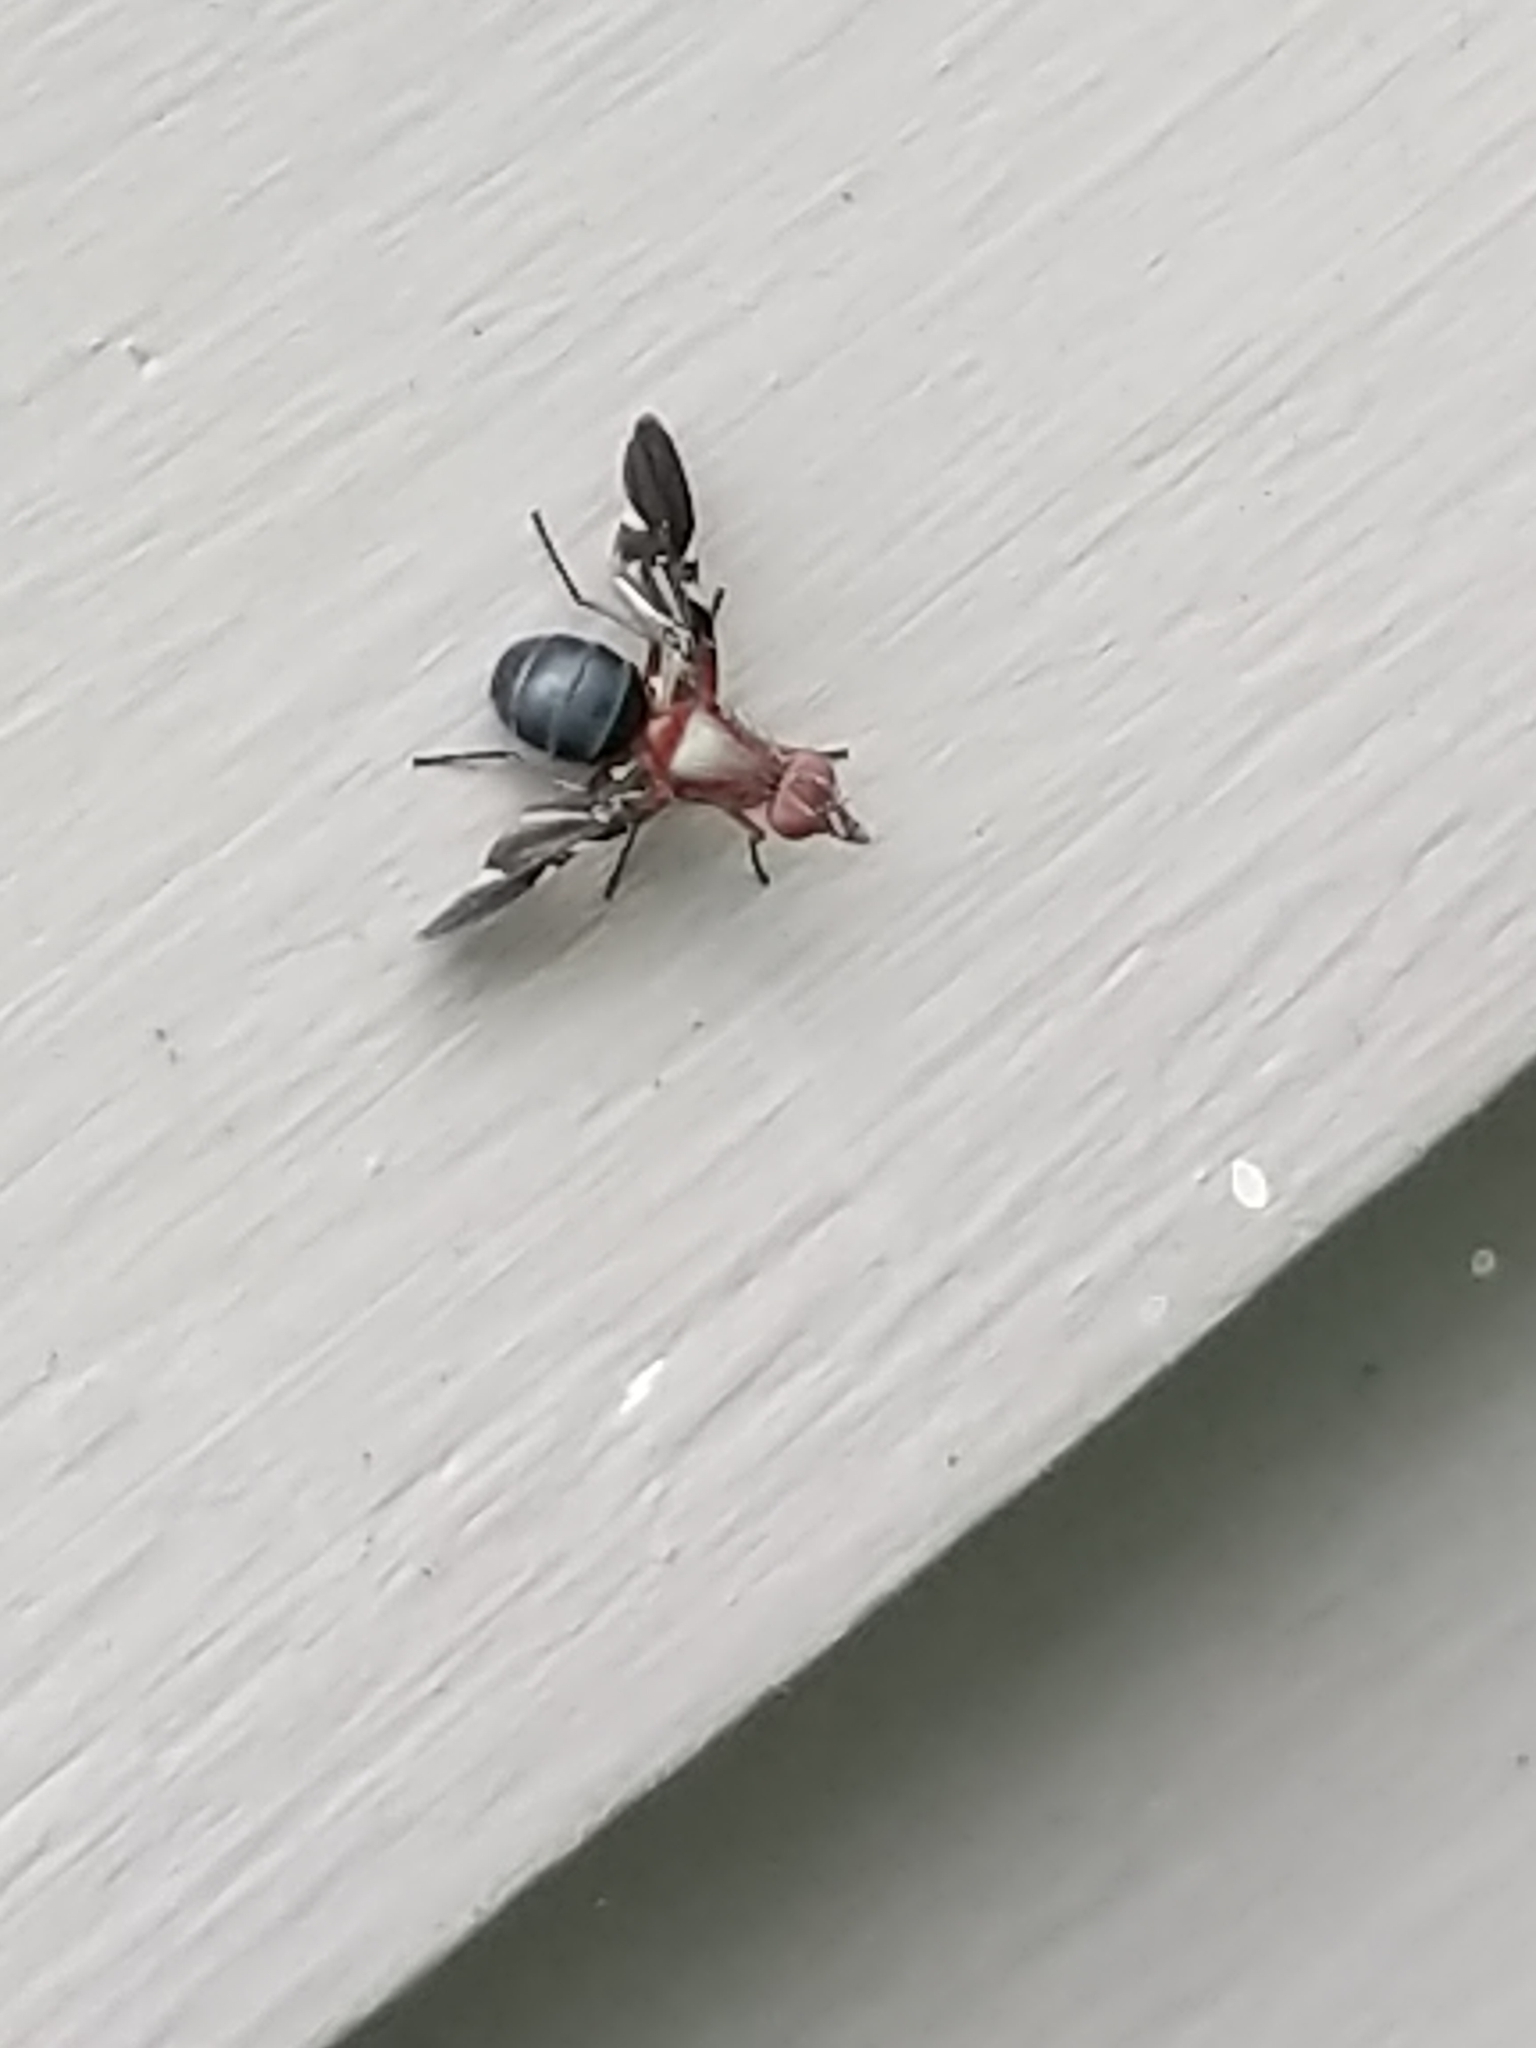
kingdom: Animalia
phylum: Arthropoda
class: Insecta
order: Diptera
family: Ulidiidae
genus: Delphinia
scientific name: Delphinia picta
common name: Common picture-winged fly
